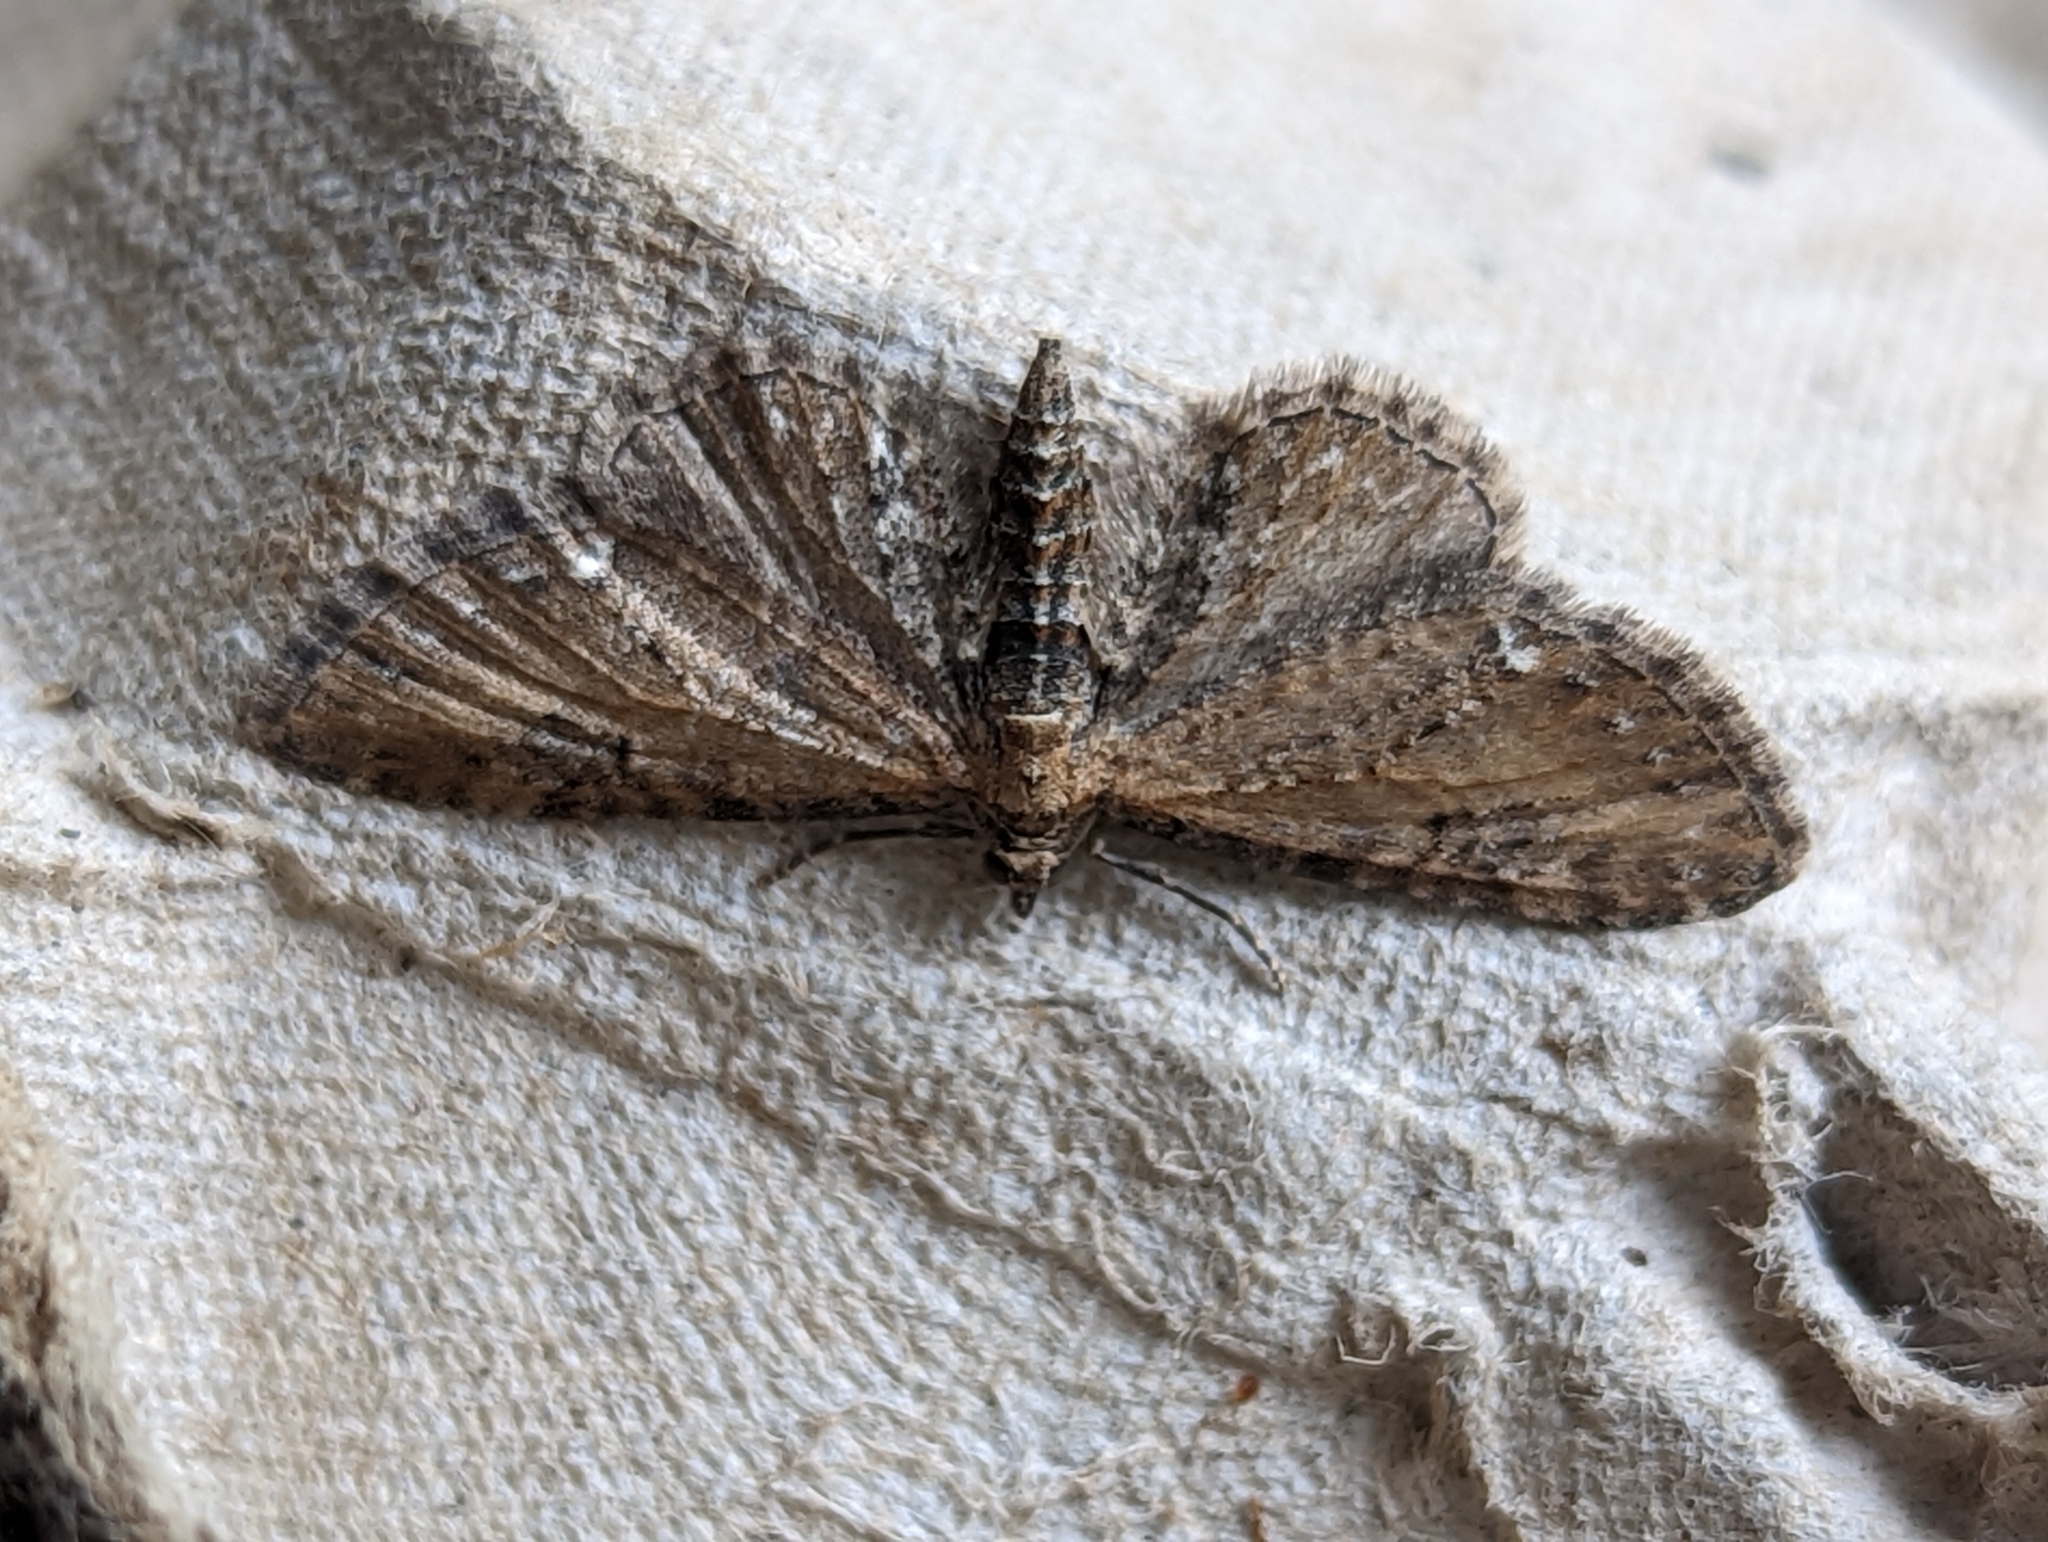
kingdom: Animalia
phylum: Arthropoda
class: Insecta
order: Lepidoptera
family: Geometridae
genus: Eupithecia
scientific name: Eupithecia vulgata
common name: Common pug
